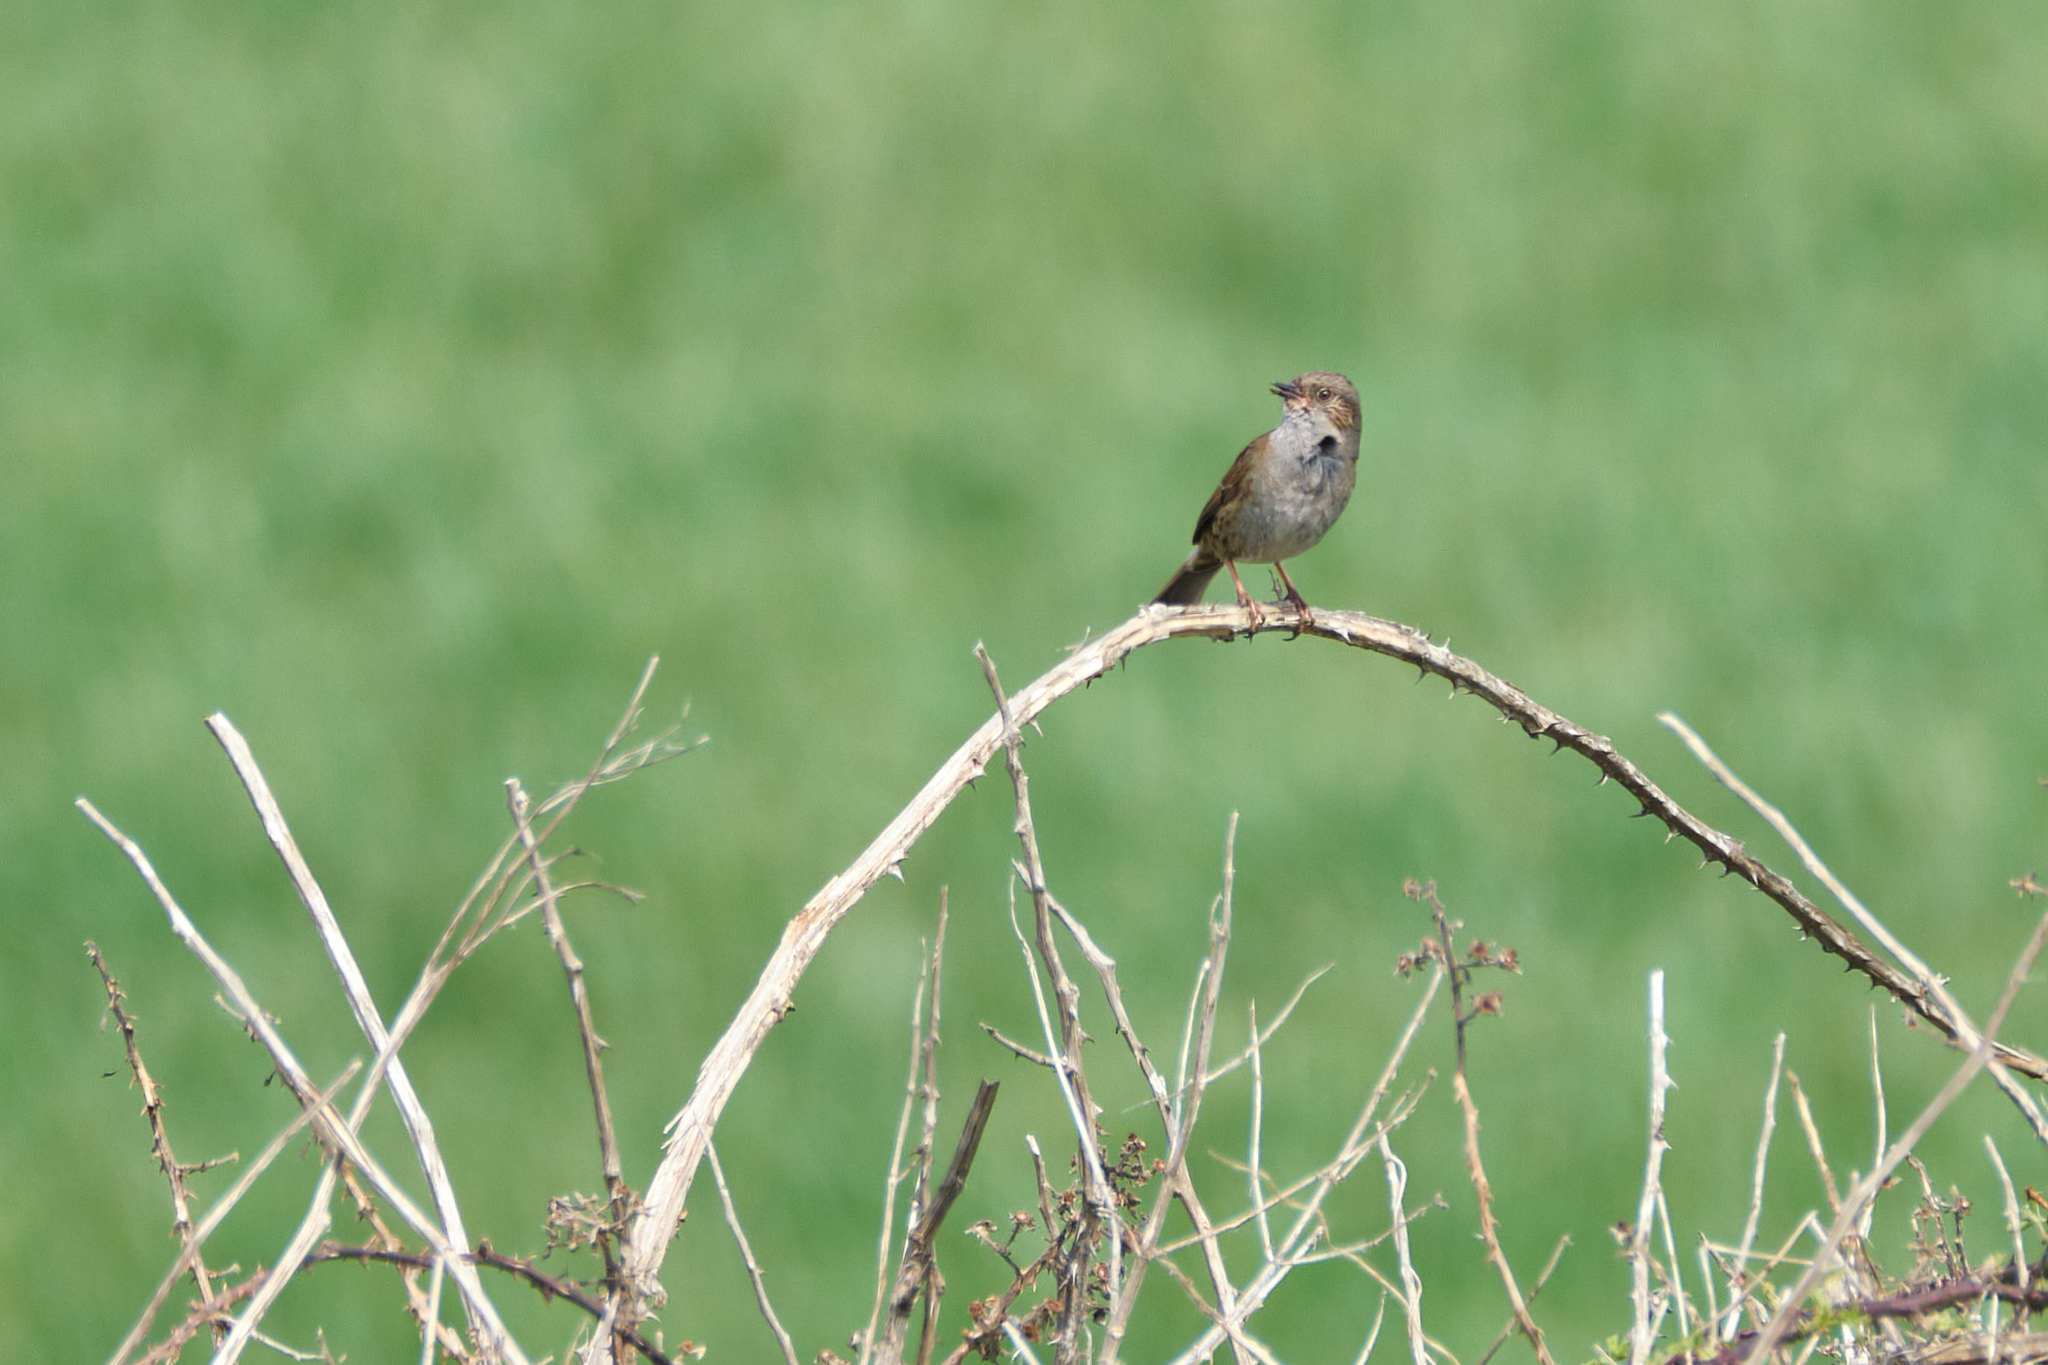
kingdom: Animalia
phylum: Chordata
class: Aves
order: Passeriformes
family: Prunellidae
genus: Prunella
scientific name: Prunella modularis
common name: Dunnock
